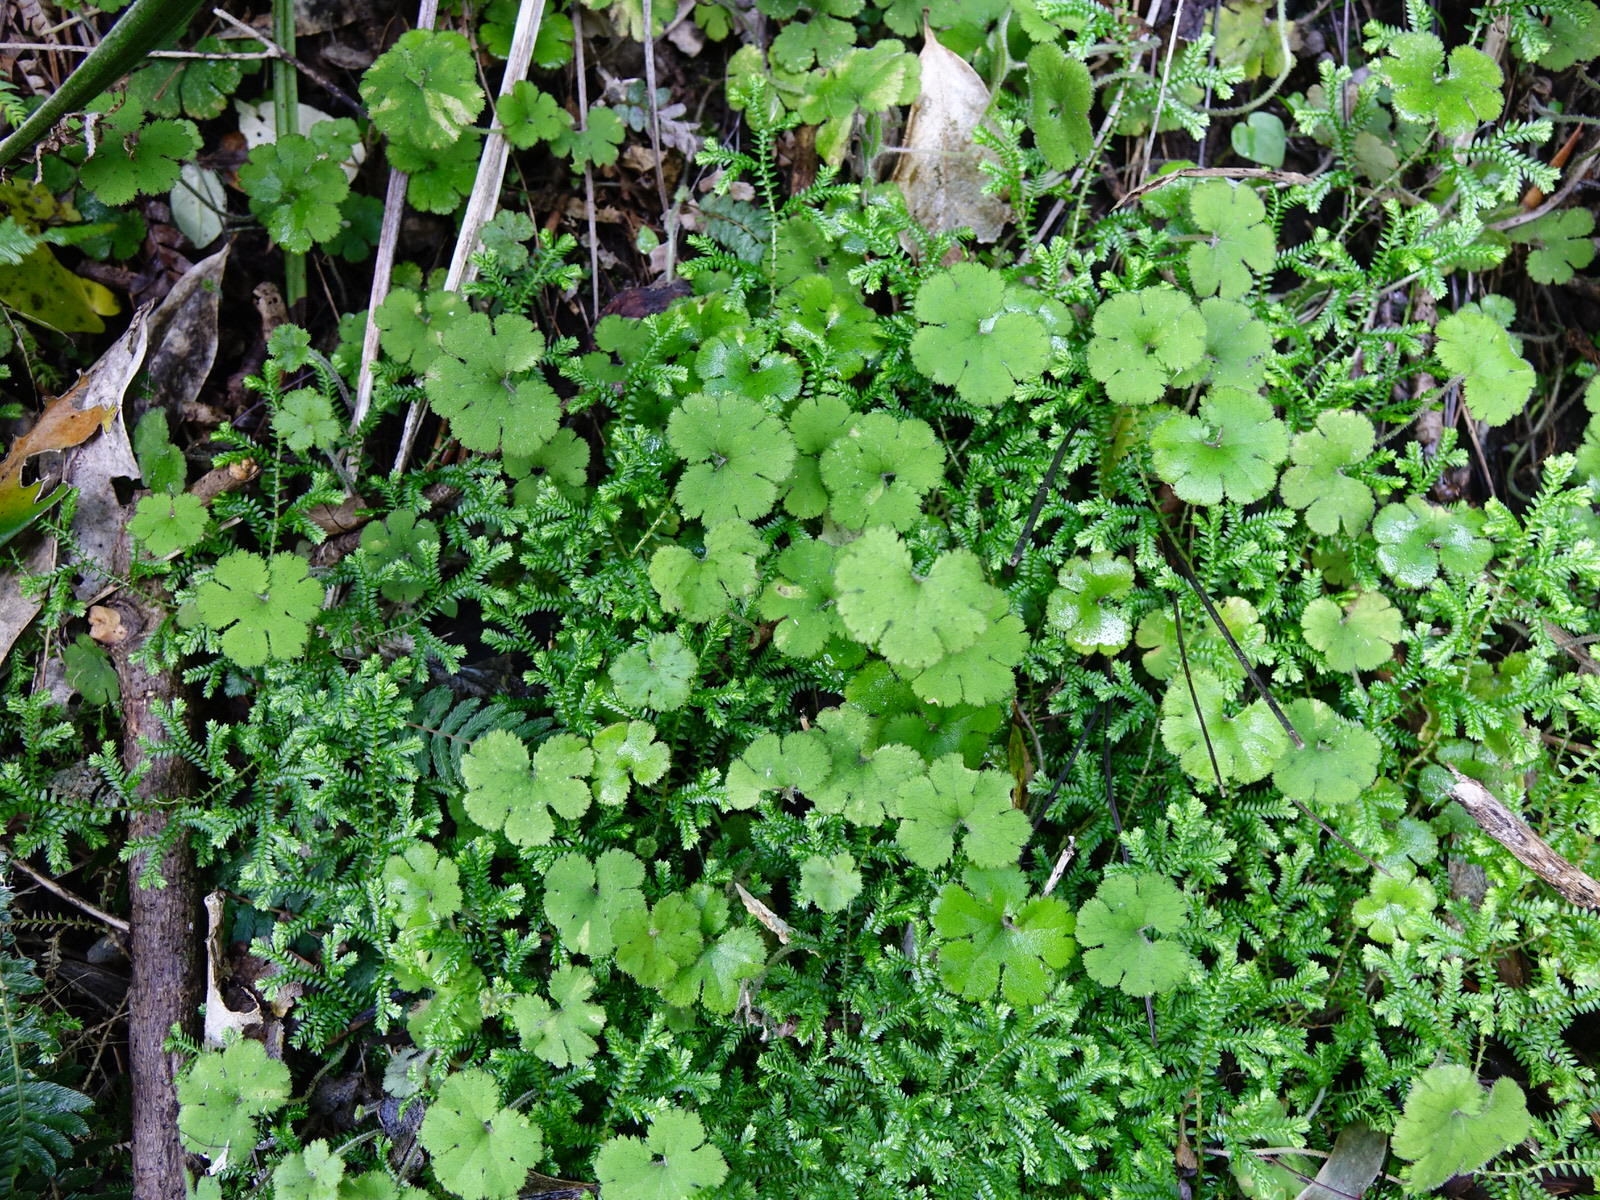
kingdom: Plantae
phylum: Tracheophyta
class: Magnoliopsida
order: Apiales
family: Araliaceae
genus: Hydrocotyle
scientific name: Hydrocotyle elongata
